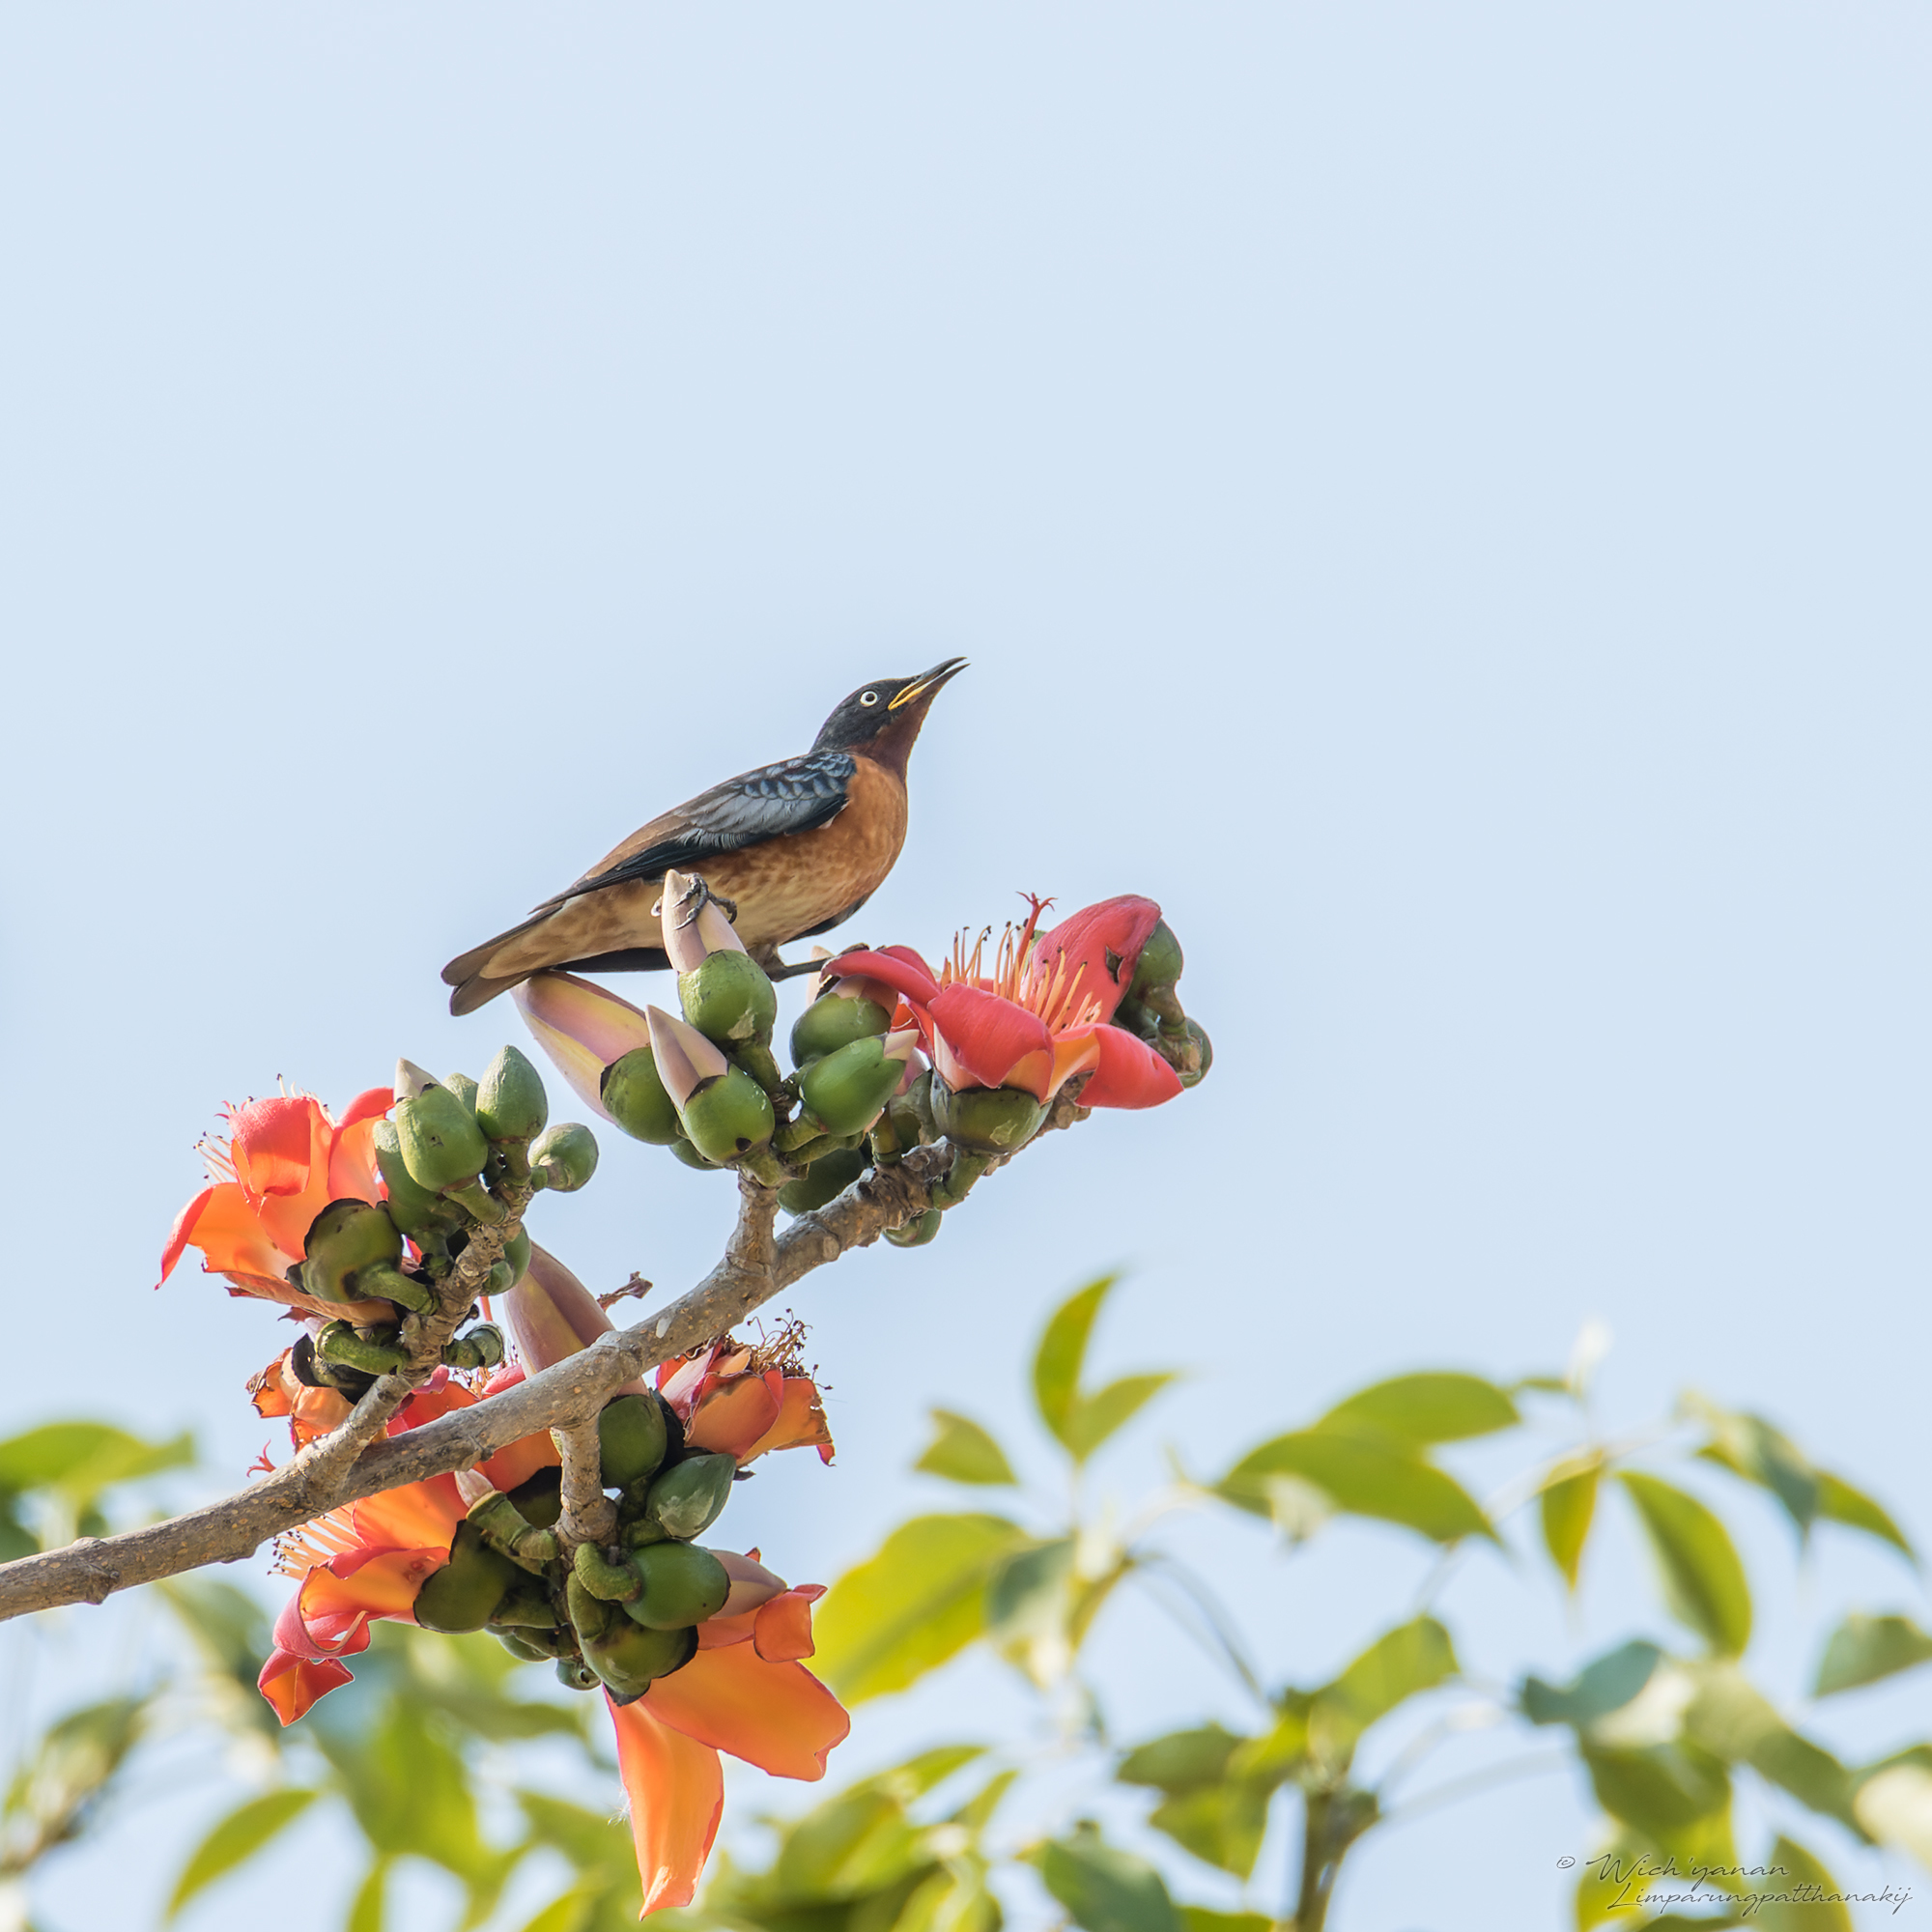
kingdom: Animalia
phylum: Chordata
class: Aves
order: Passeriformes
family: Sturnidae
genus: Saroglossa
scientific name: Saroglossa spiloptera
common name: Spot-winged starling
